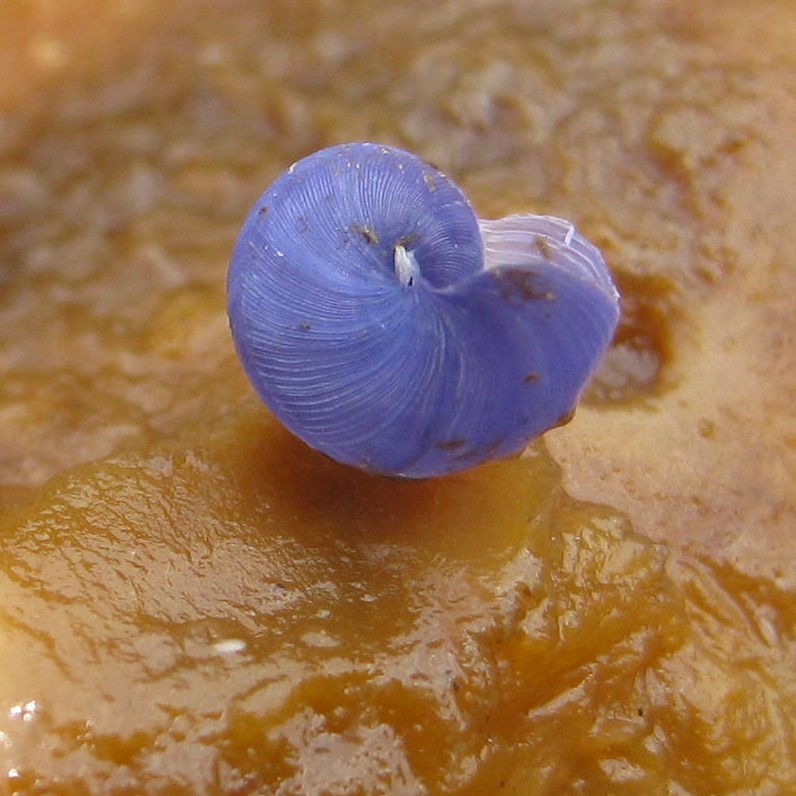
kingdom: Animalia
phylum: Mollusca
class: Gastropoda
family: Epitoniidae
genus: Janthina
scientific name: Janthina exigua
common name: Dwarf janthina
